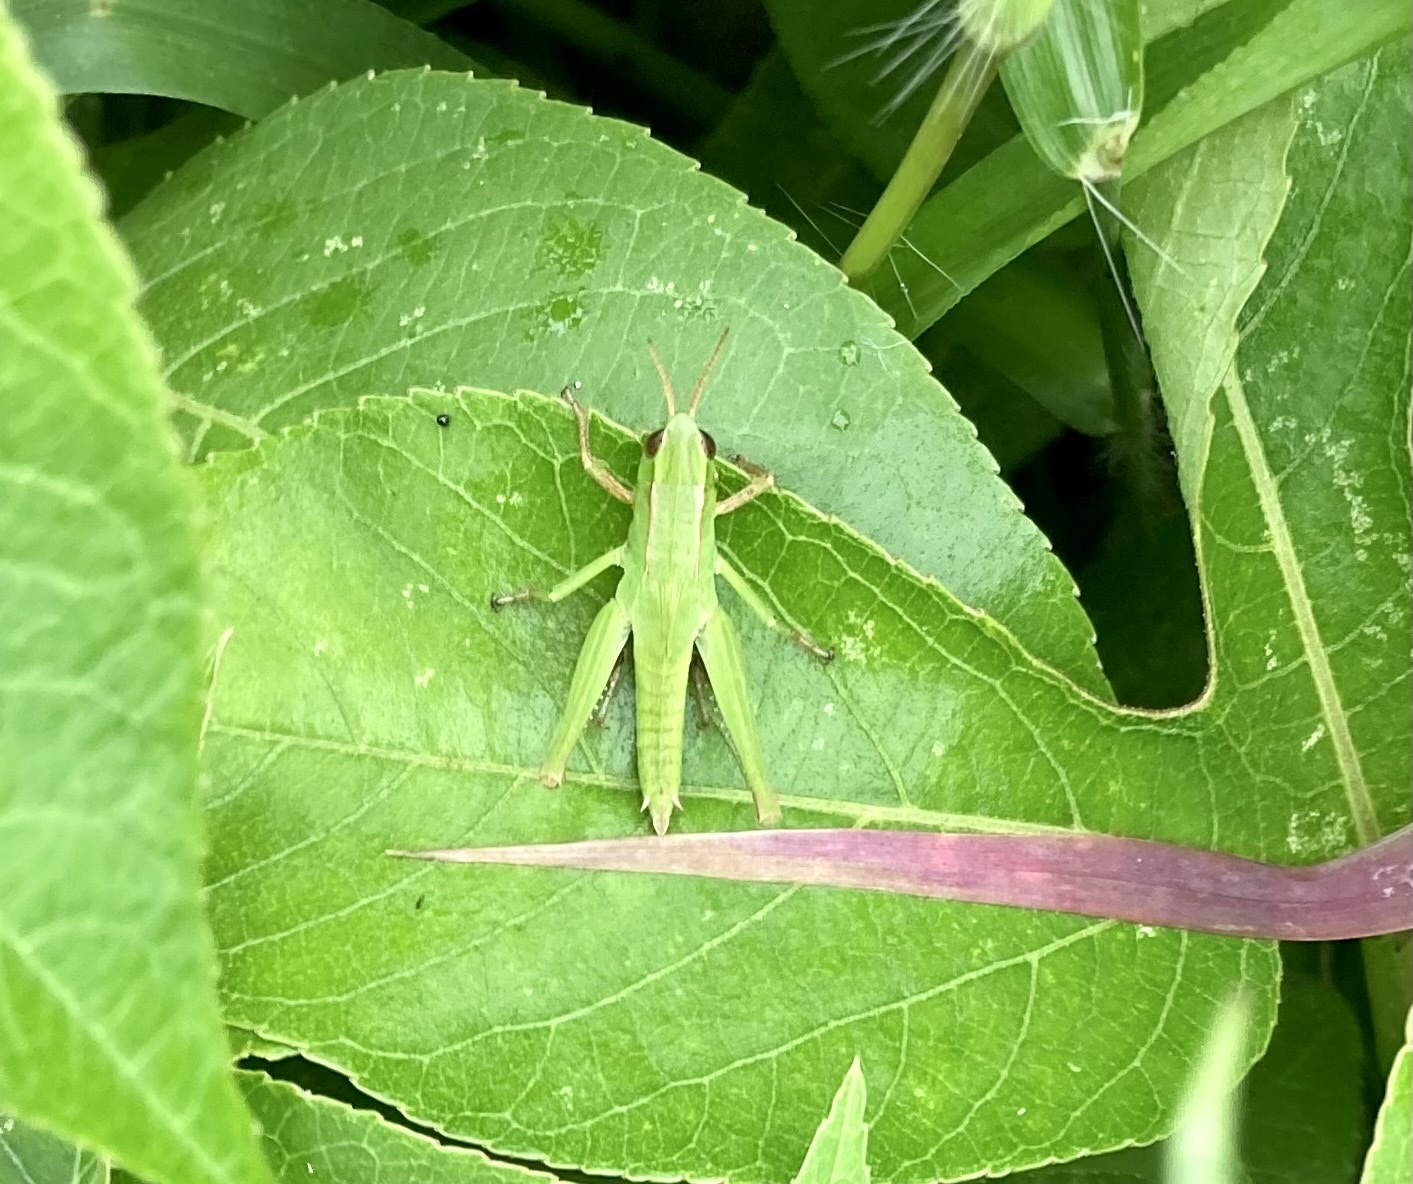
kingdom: Animalia
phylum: Arthropoda
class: Insecta
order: Orthoptera
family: Acrididae
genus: Dichromorpha
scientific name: Dichromorpha viridis
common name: Short-winged green grasshopper
